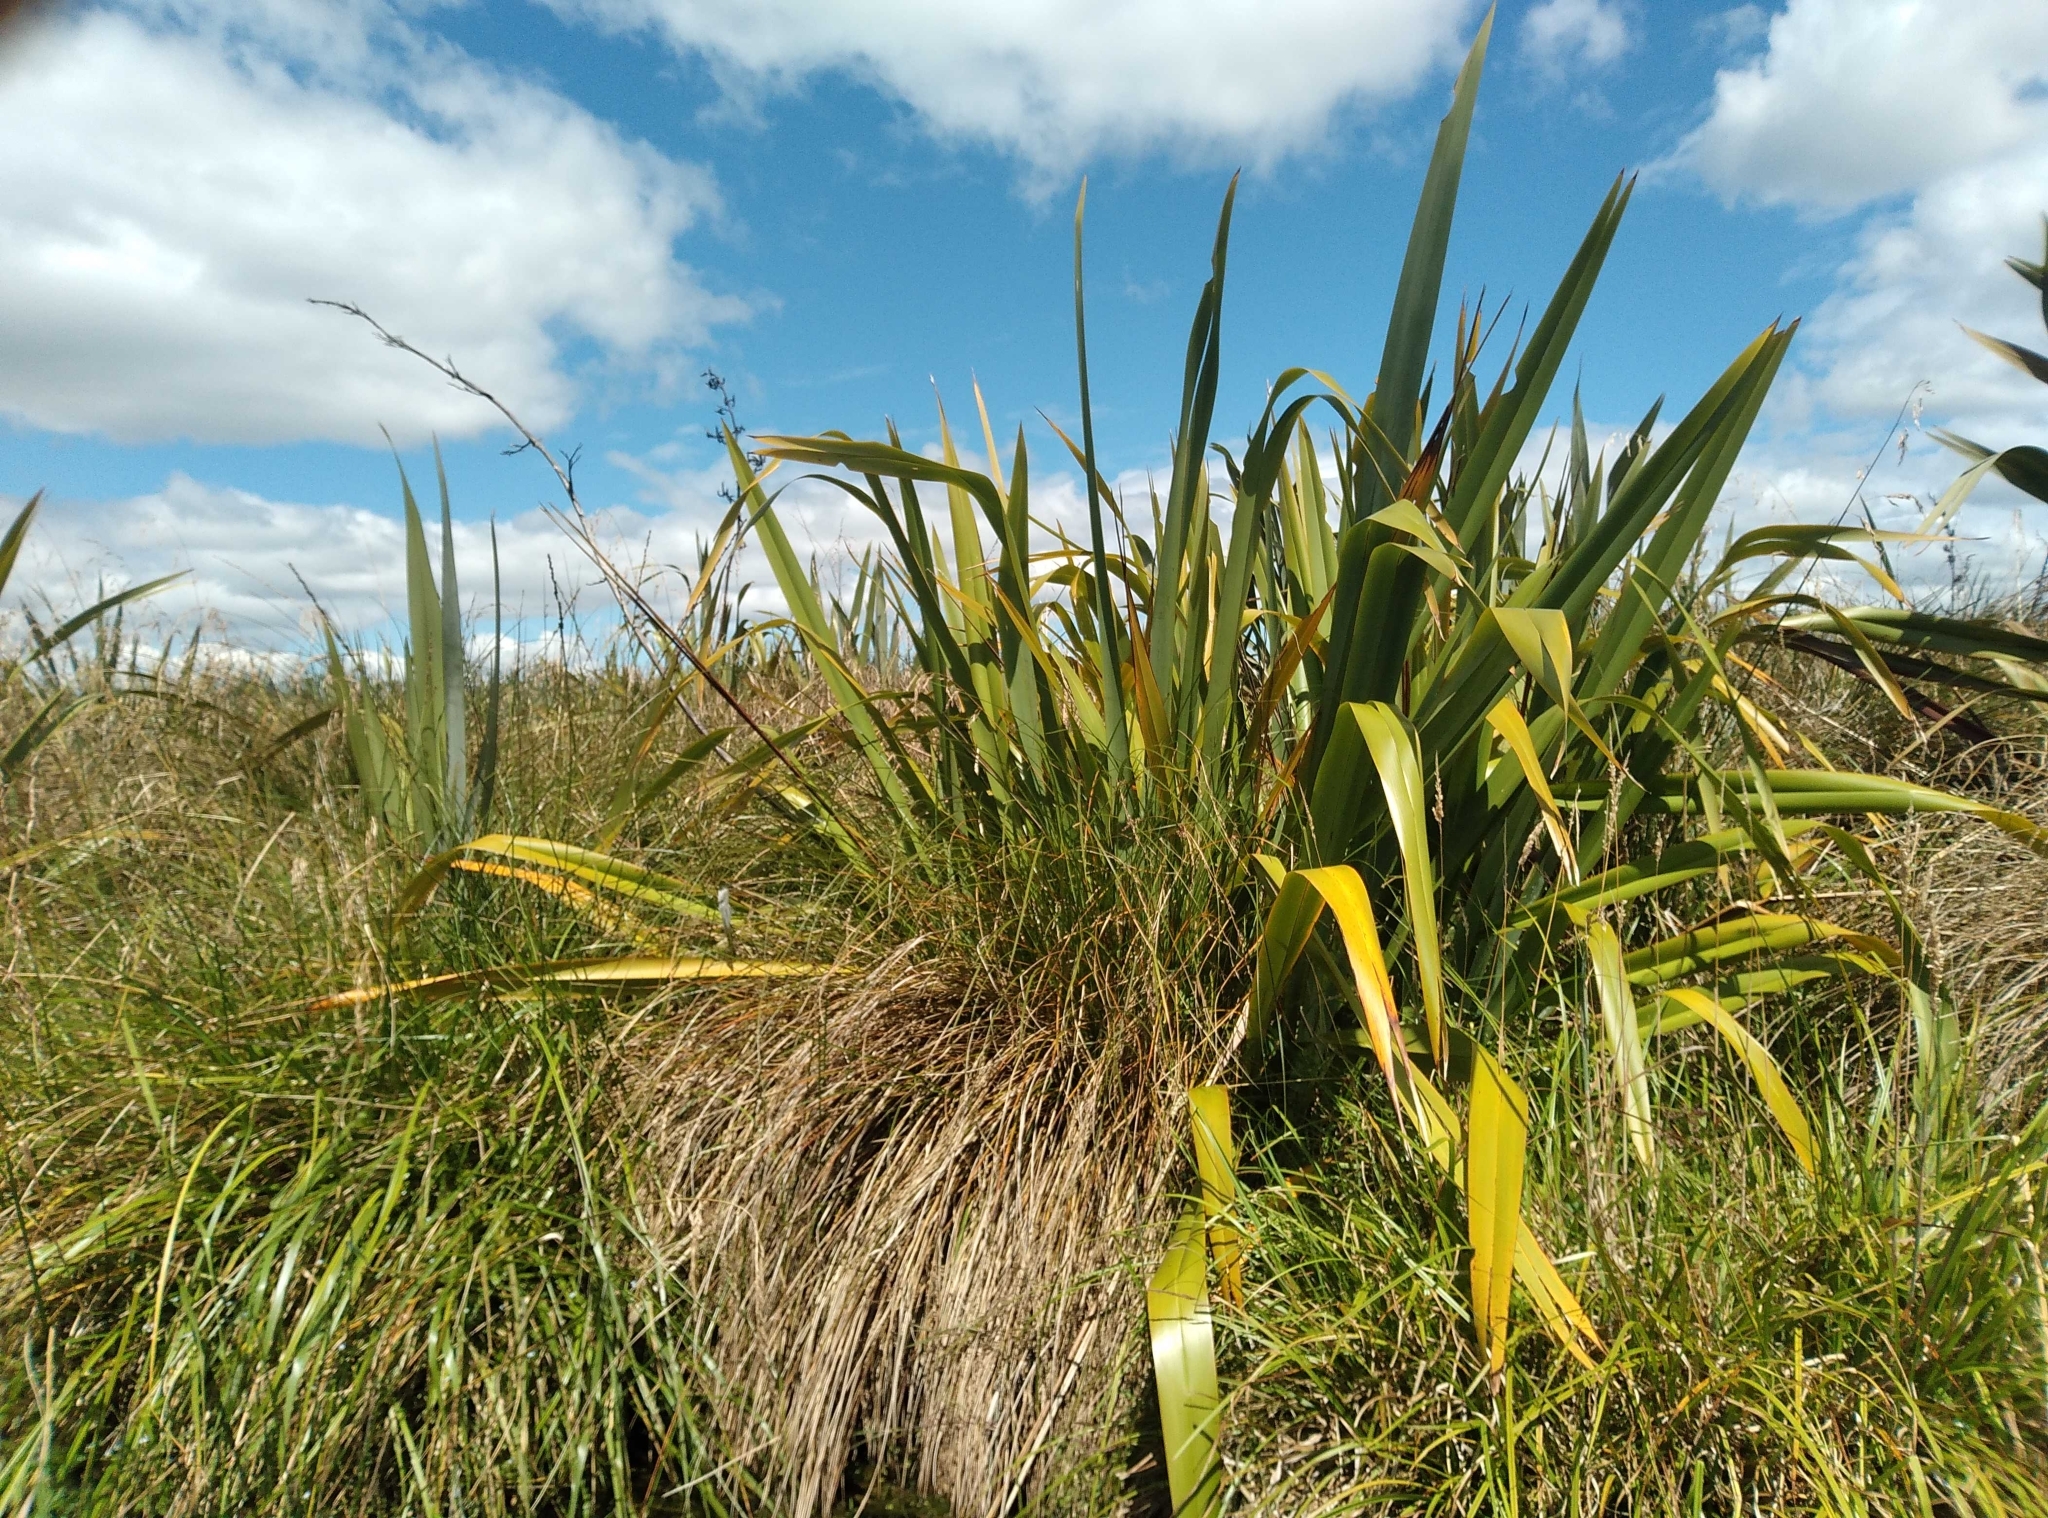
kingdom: Plantae
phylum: Tracheophyta
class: Liliopsida
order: Asparagales
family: Asphodelaceae
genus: Phormium
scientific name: Phormium tenax
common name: New zealand flax
